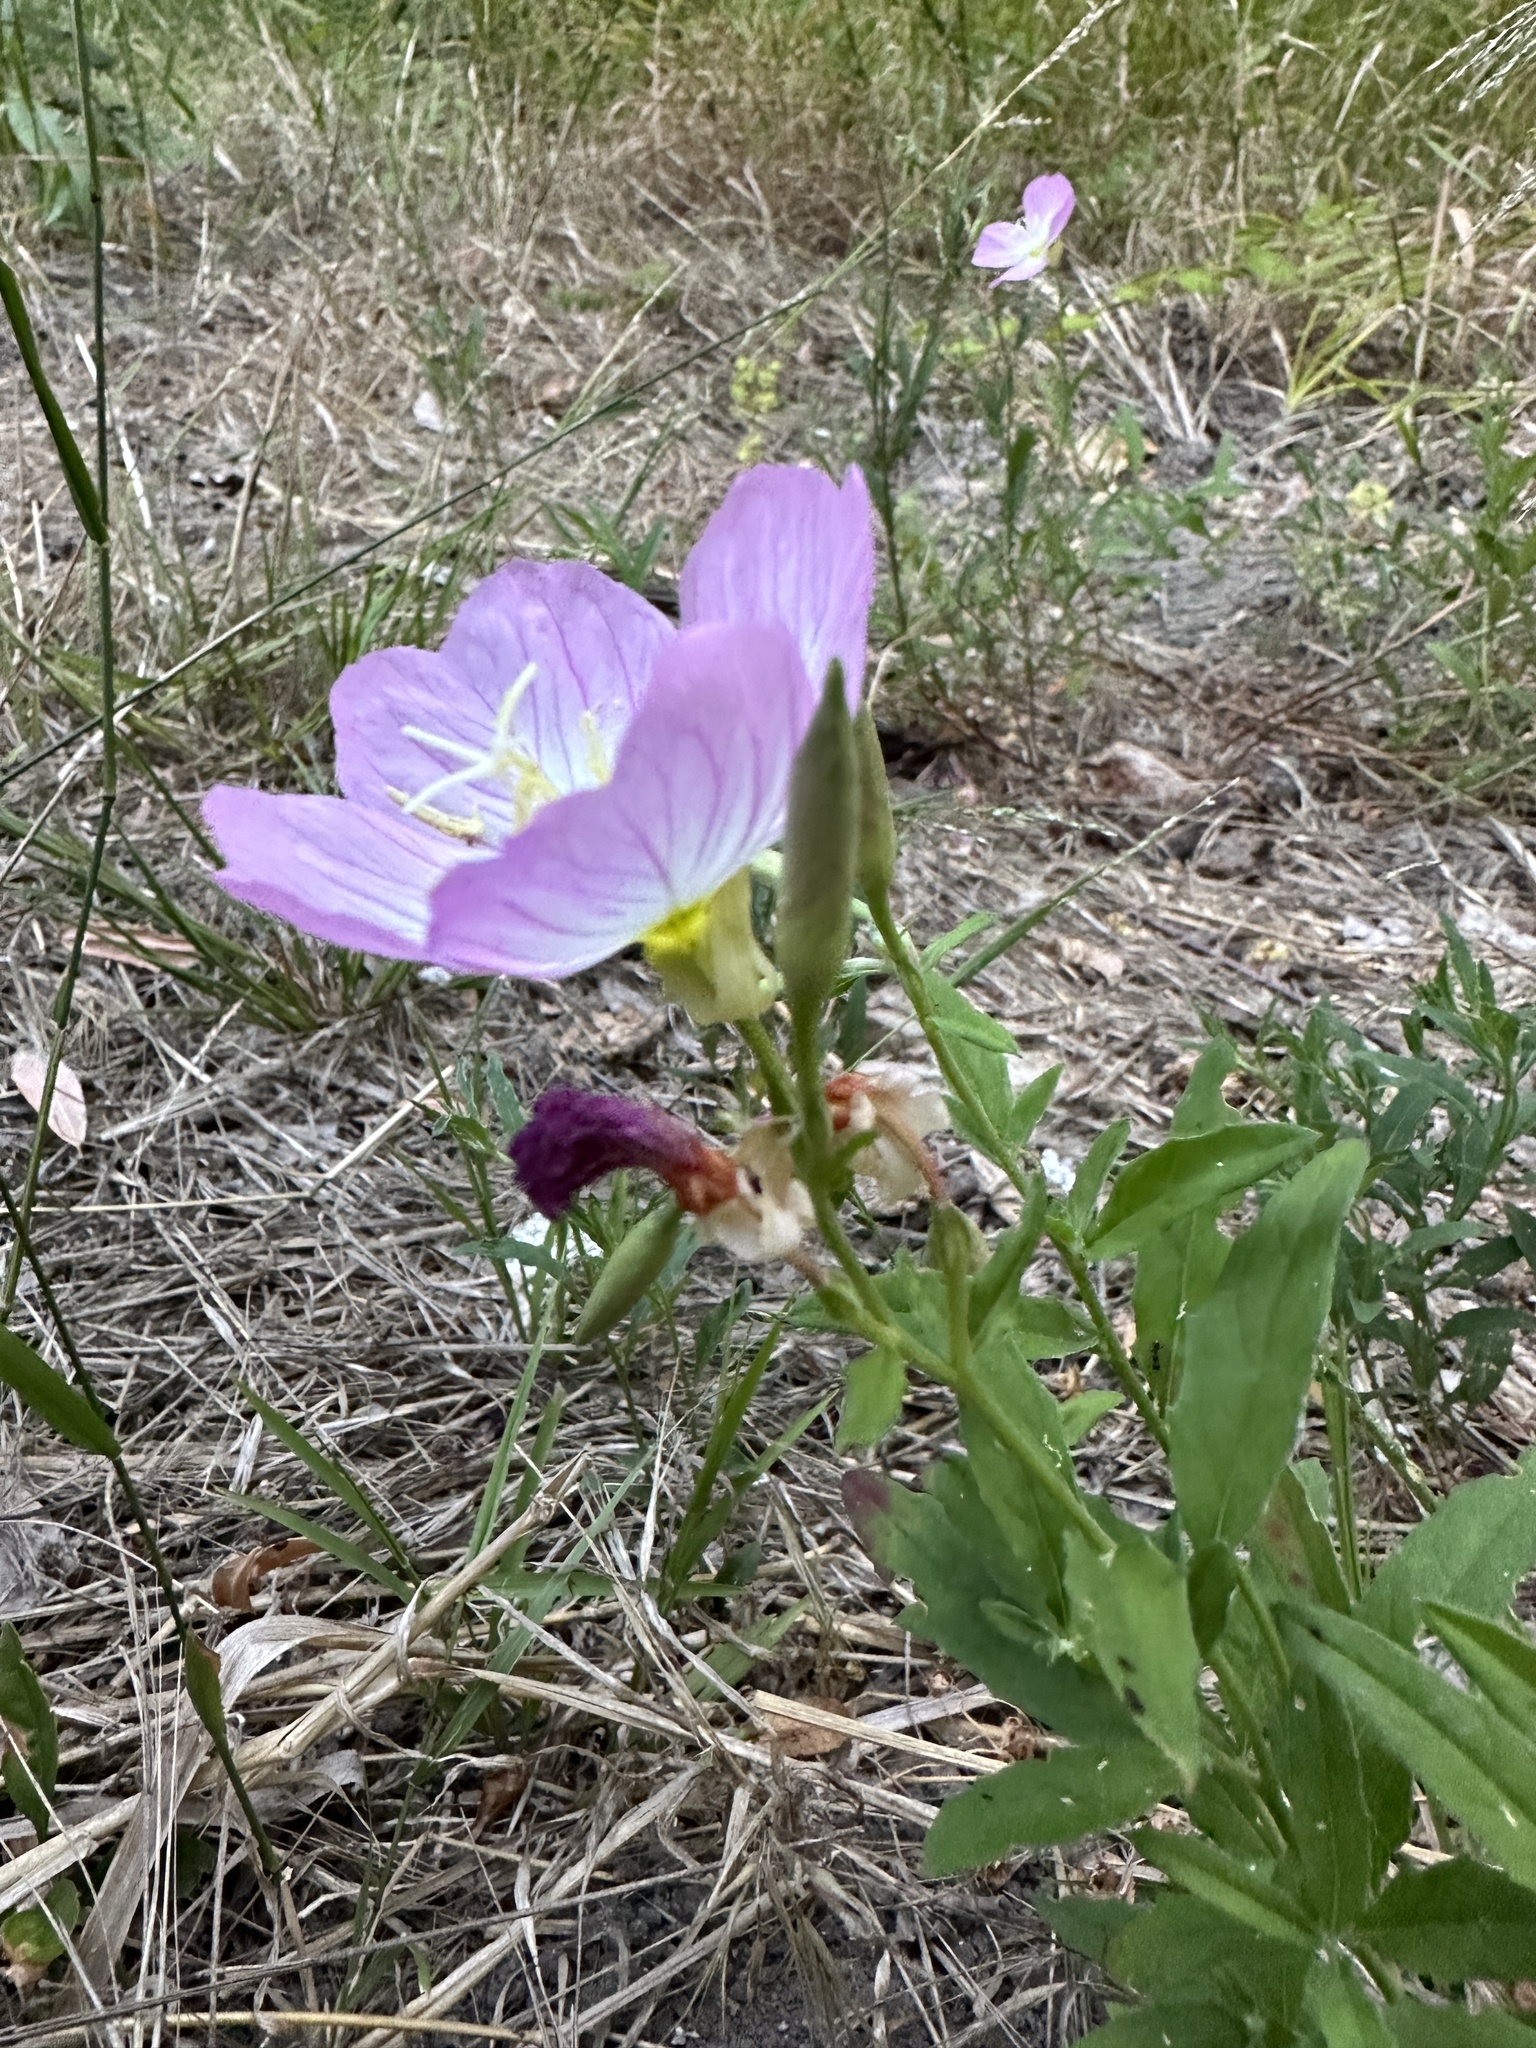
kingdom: Plantae
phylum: Tracheophyta
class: Magnoliopsida
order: Myrtales
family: Onagraceae
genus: Oenothera
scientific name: Oenothera speciosa
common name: White evening-primrose
